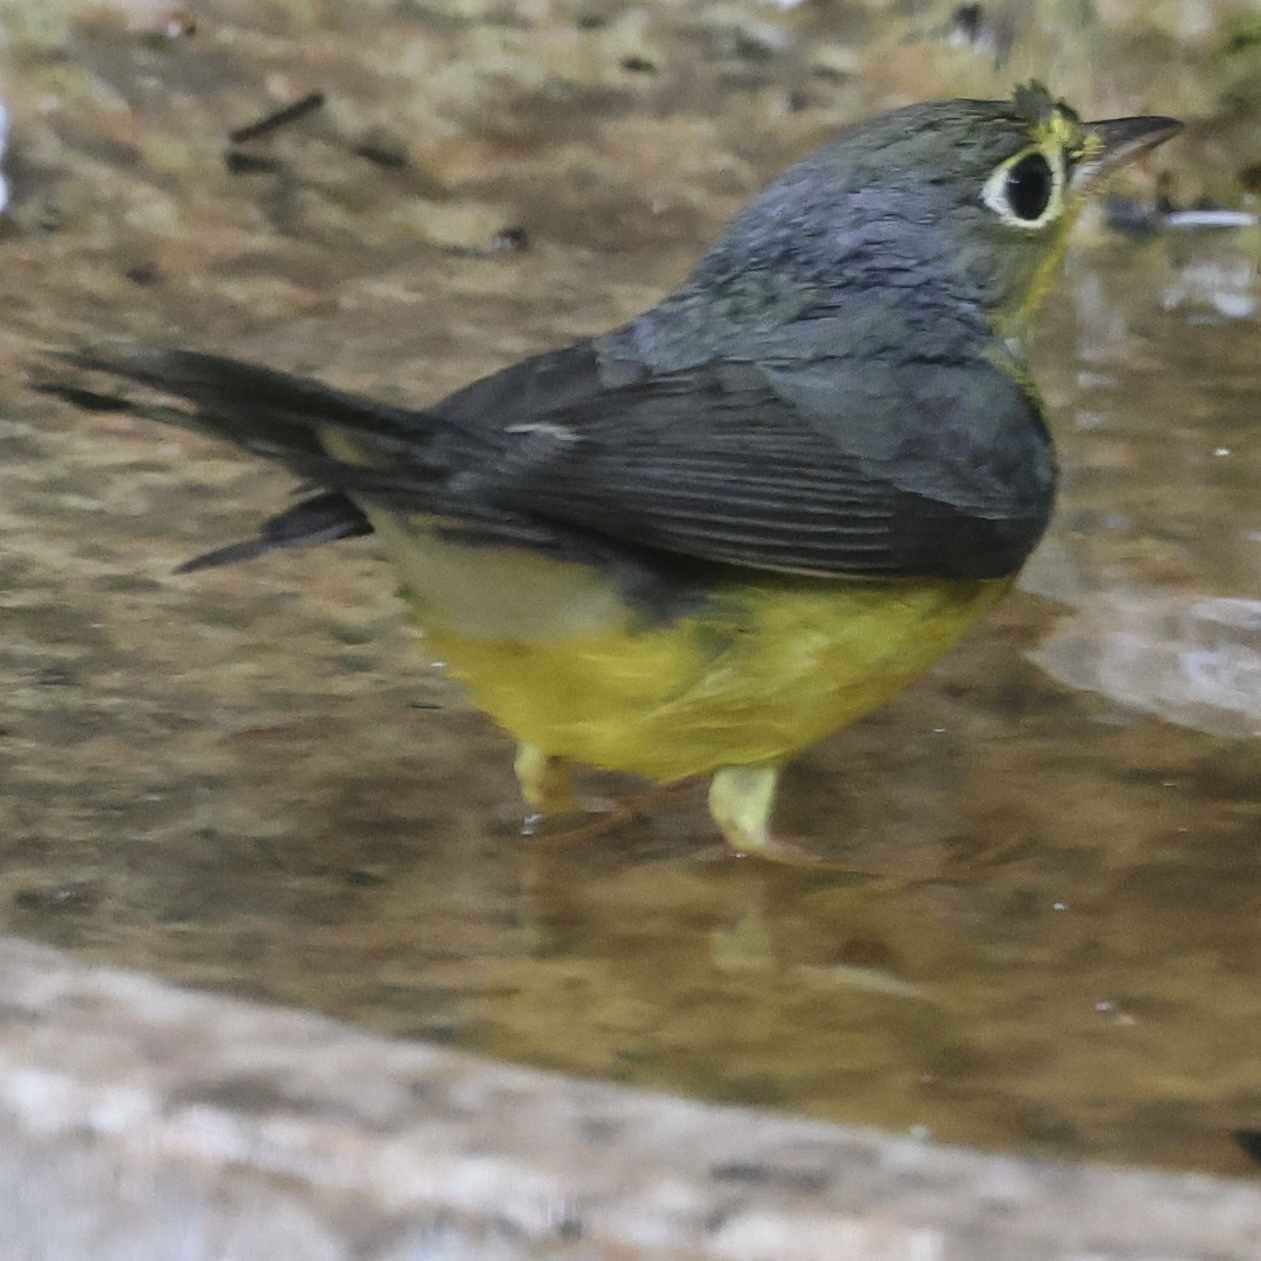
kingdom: Animalia
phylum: Chordata
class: Aves
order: Passeriformes
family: Parulidae
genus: Cardellina
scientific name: Cardellina canadensis
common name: Canada warbler
